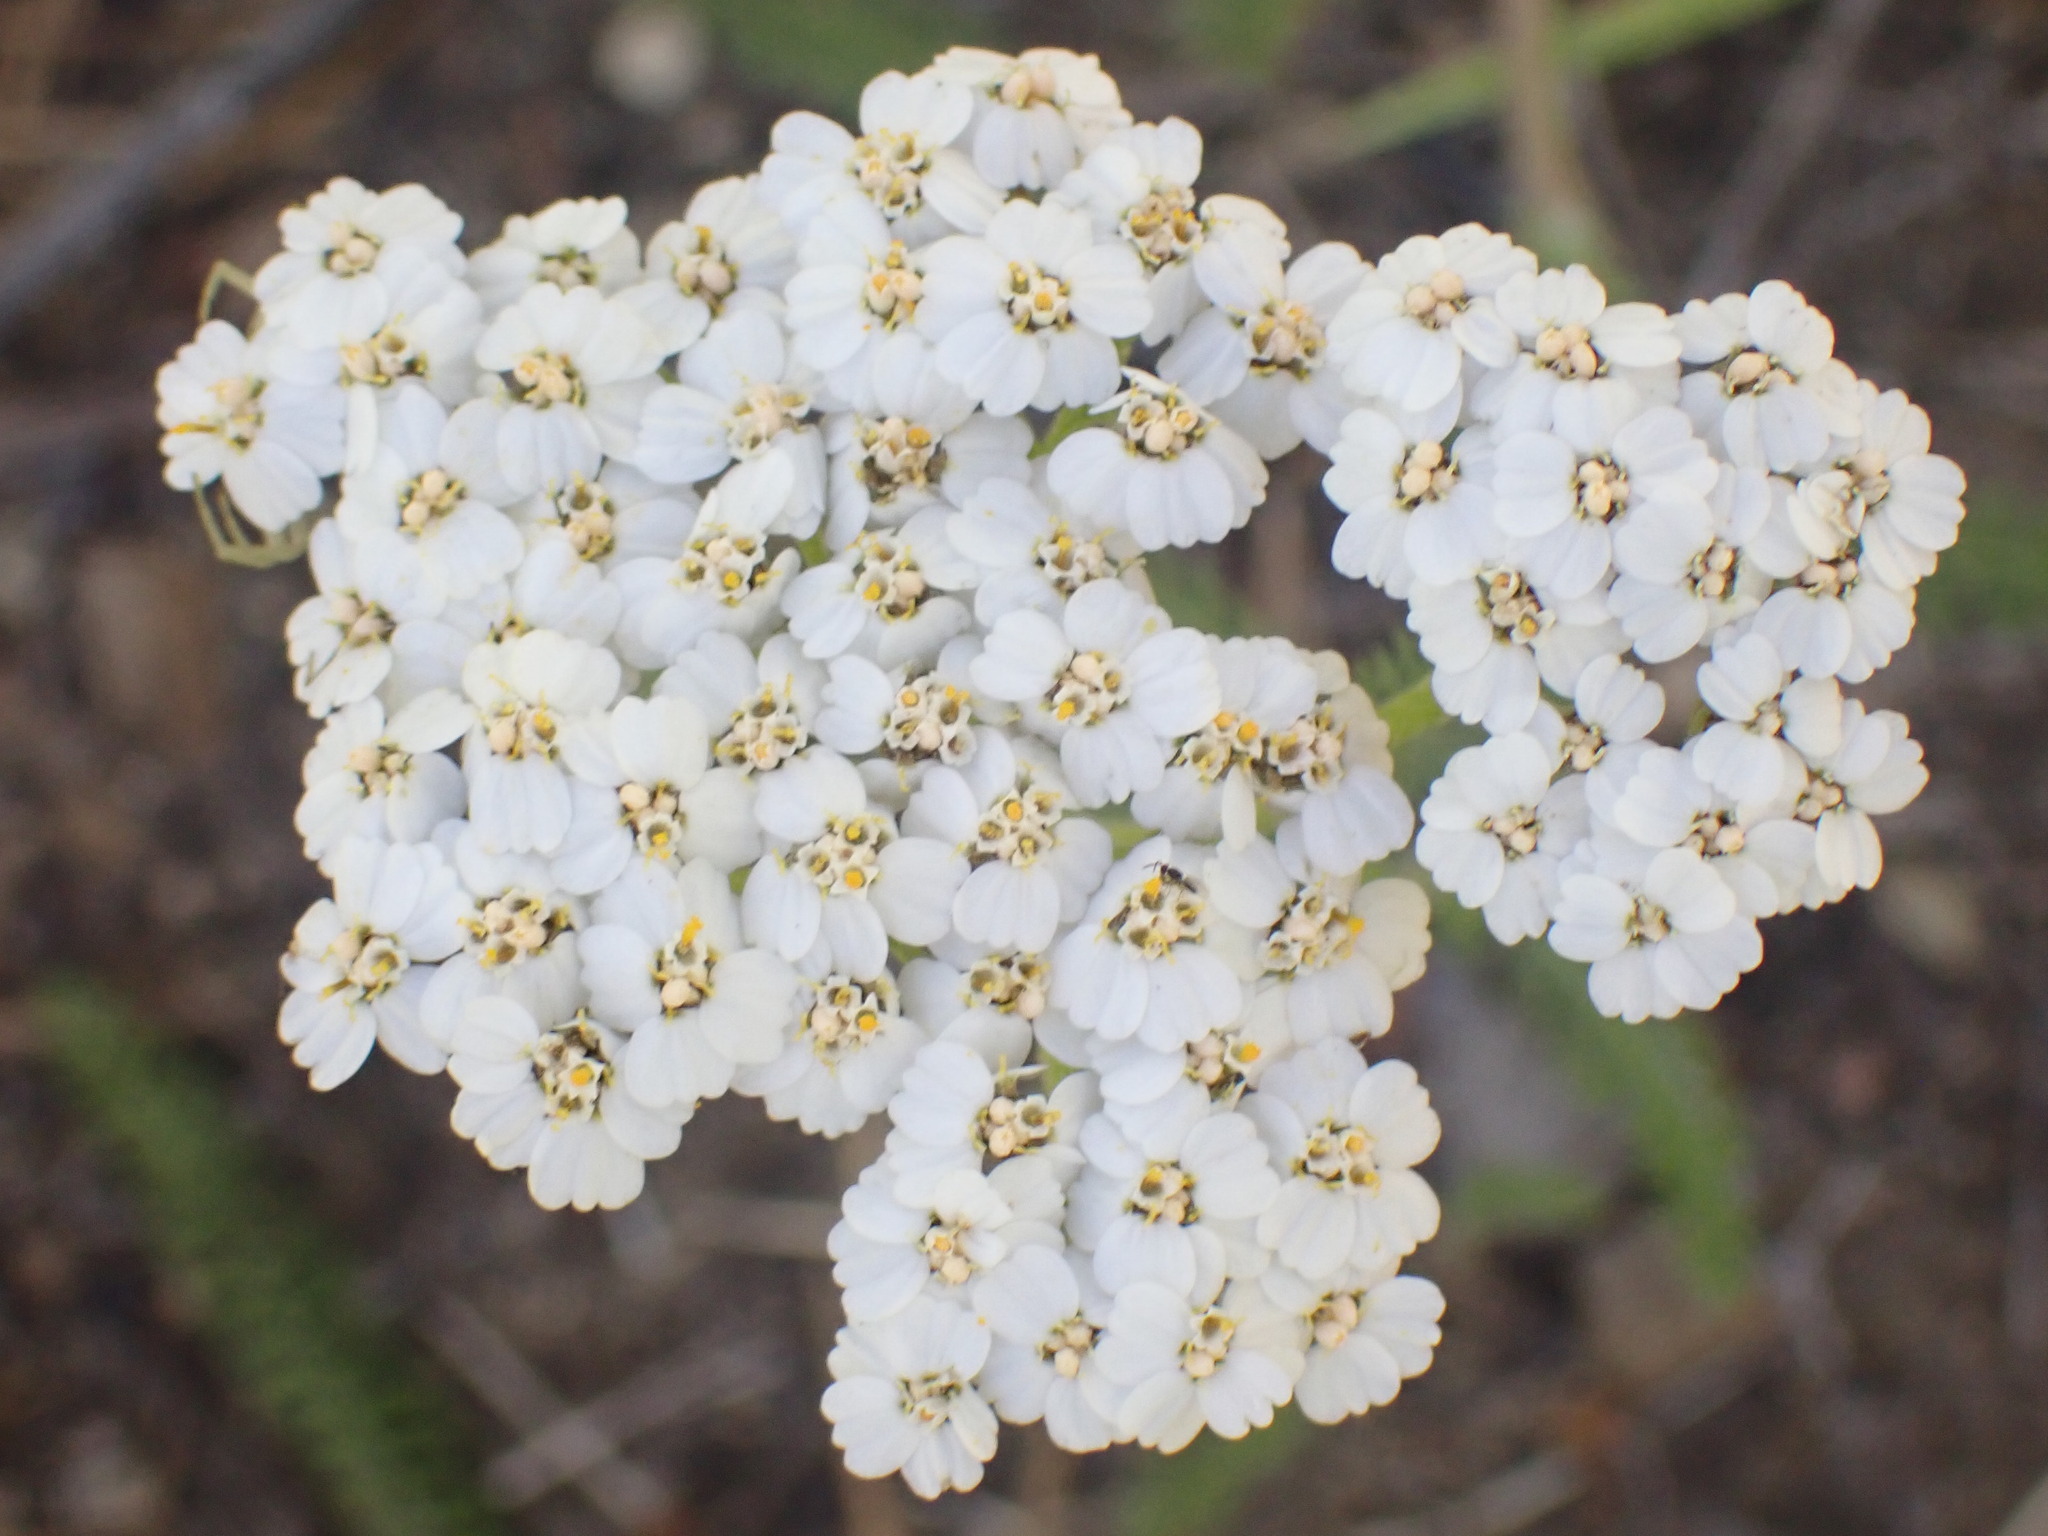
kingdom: Plantae
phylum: Tracheophyta
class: Magnoliopsida
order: Asterales
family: Asteraceae
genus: Achillea
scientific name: Achillea millefolium
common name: Yarrow
